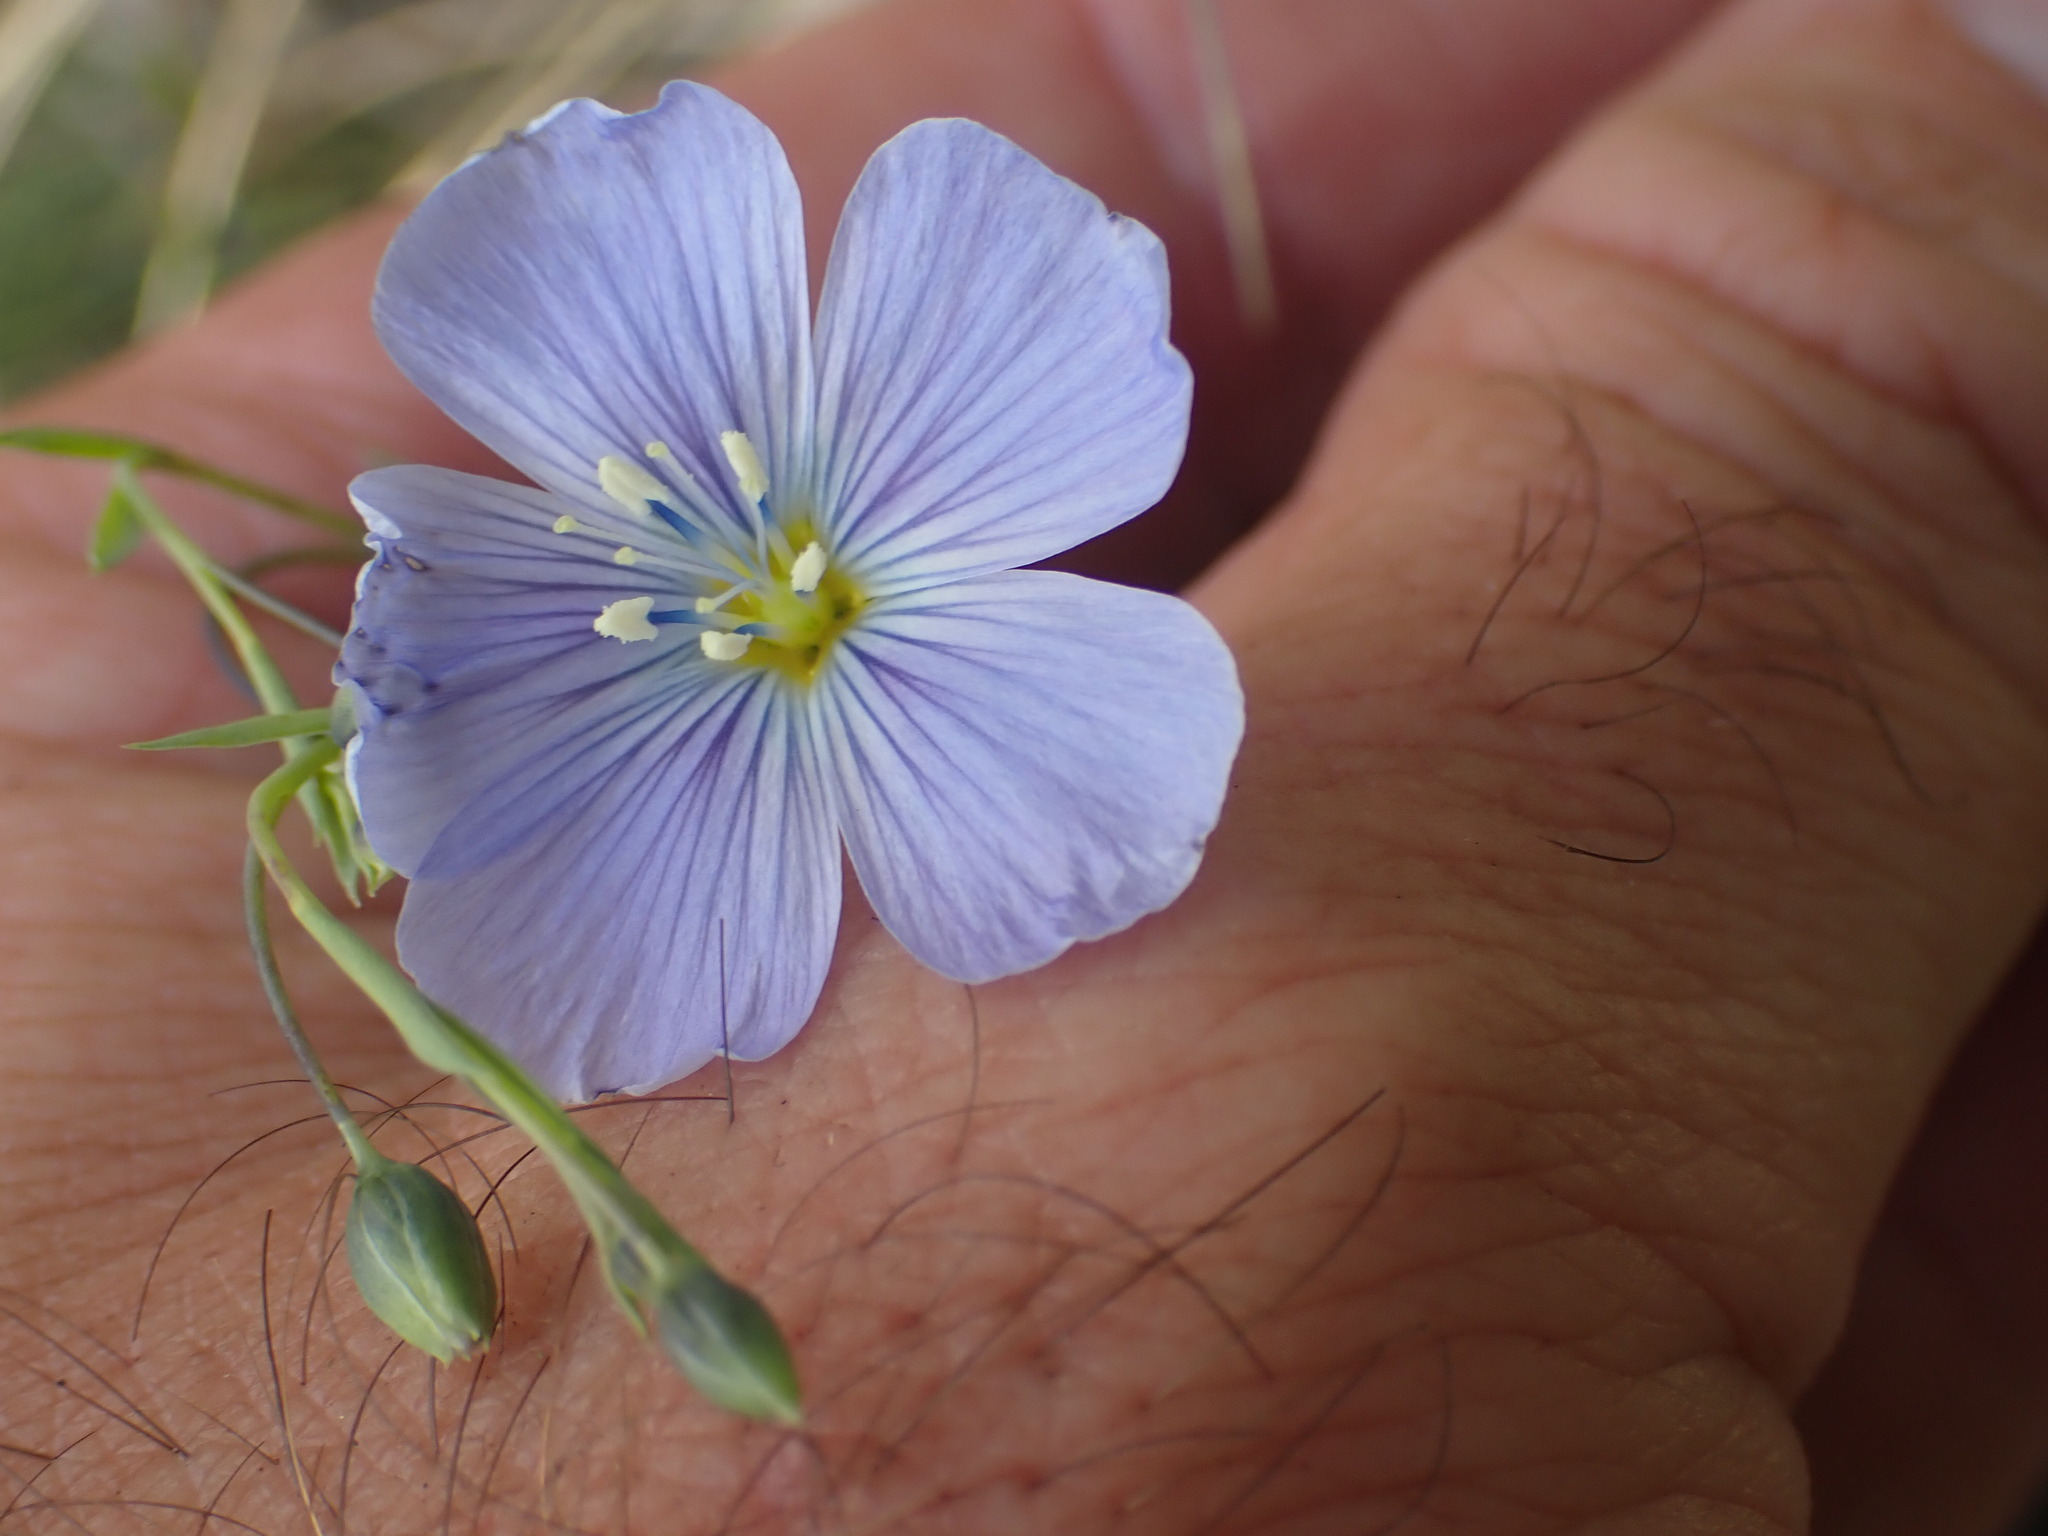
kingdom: Plantae
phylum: Tracheophyta
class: Magnoliopsida
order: Malpighiales
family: Linaceae
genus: Linum
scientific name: Linum lewisii
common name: Prairie flax
